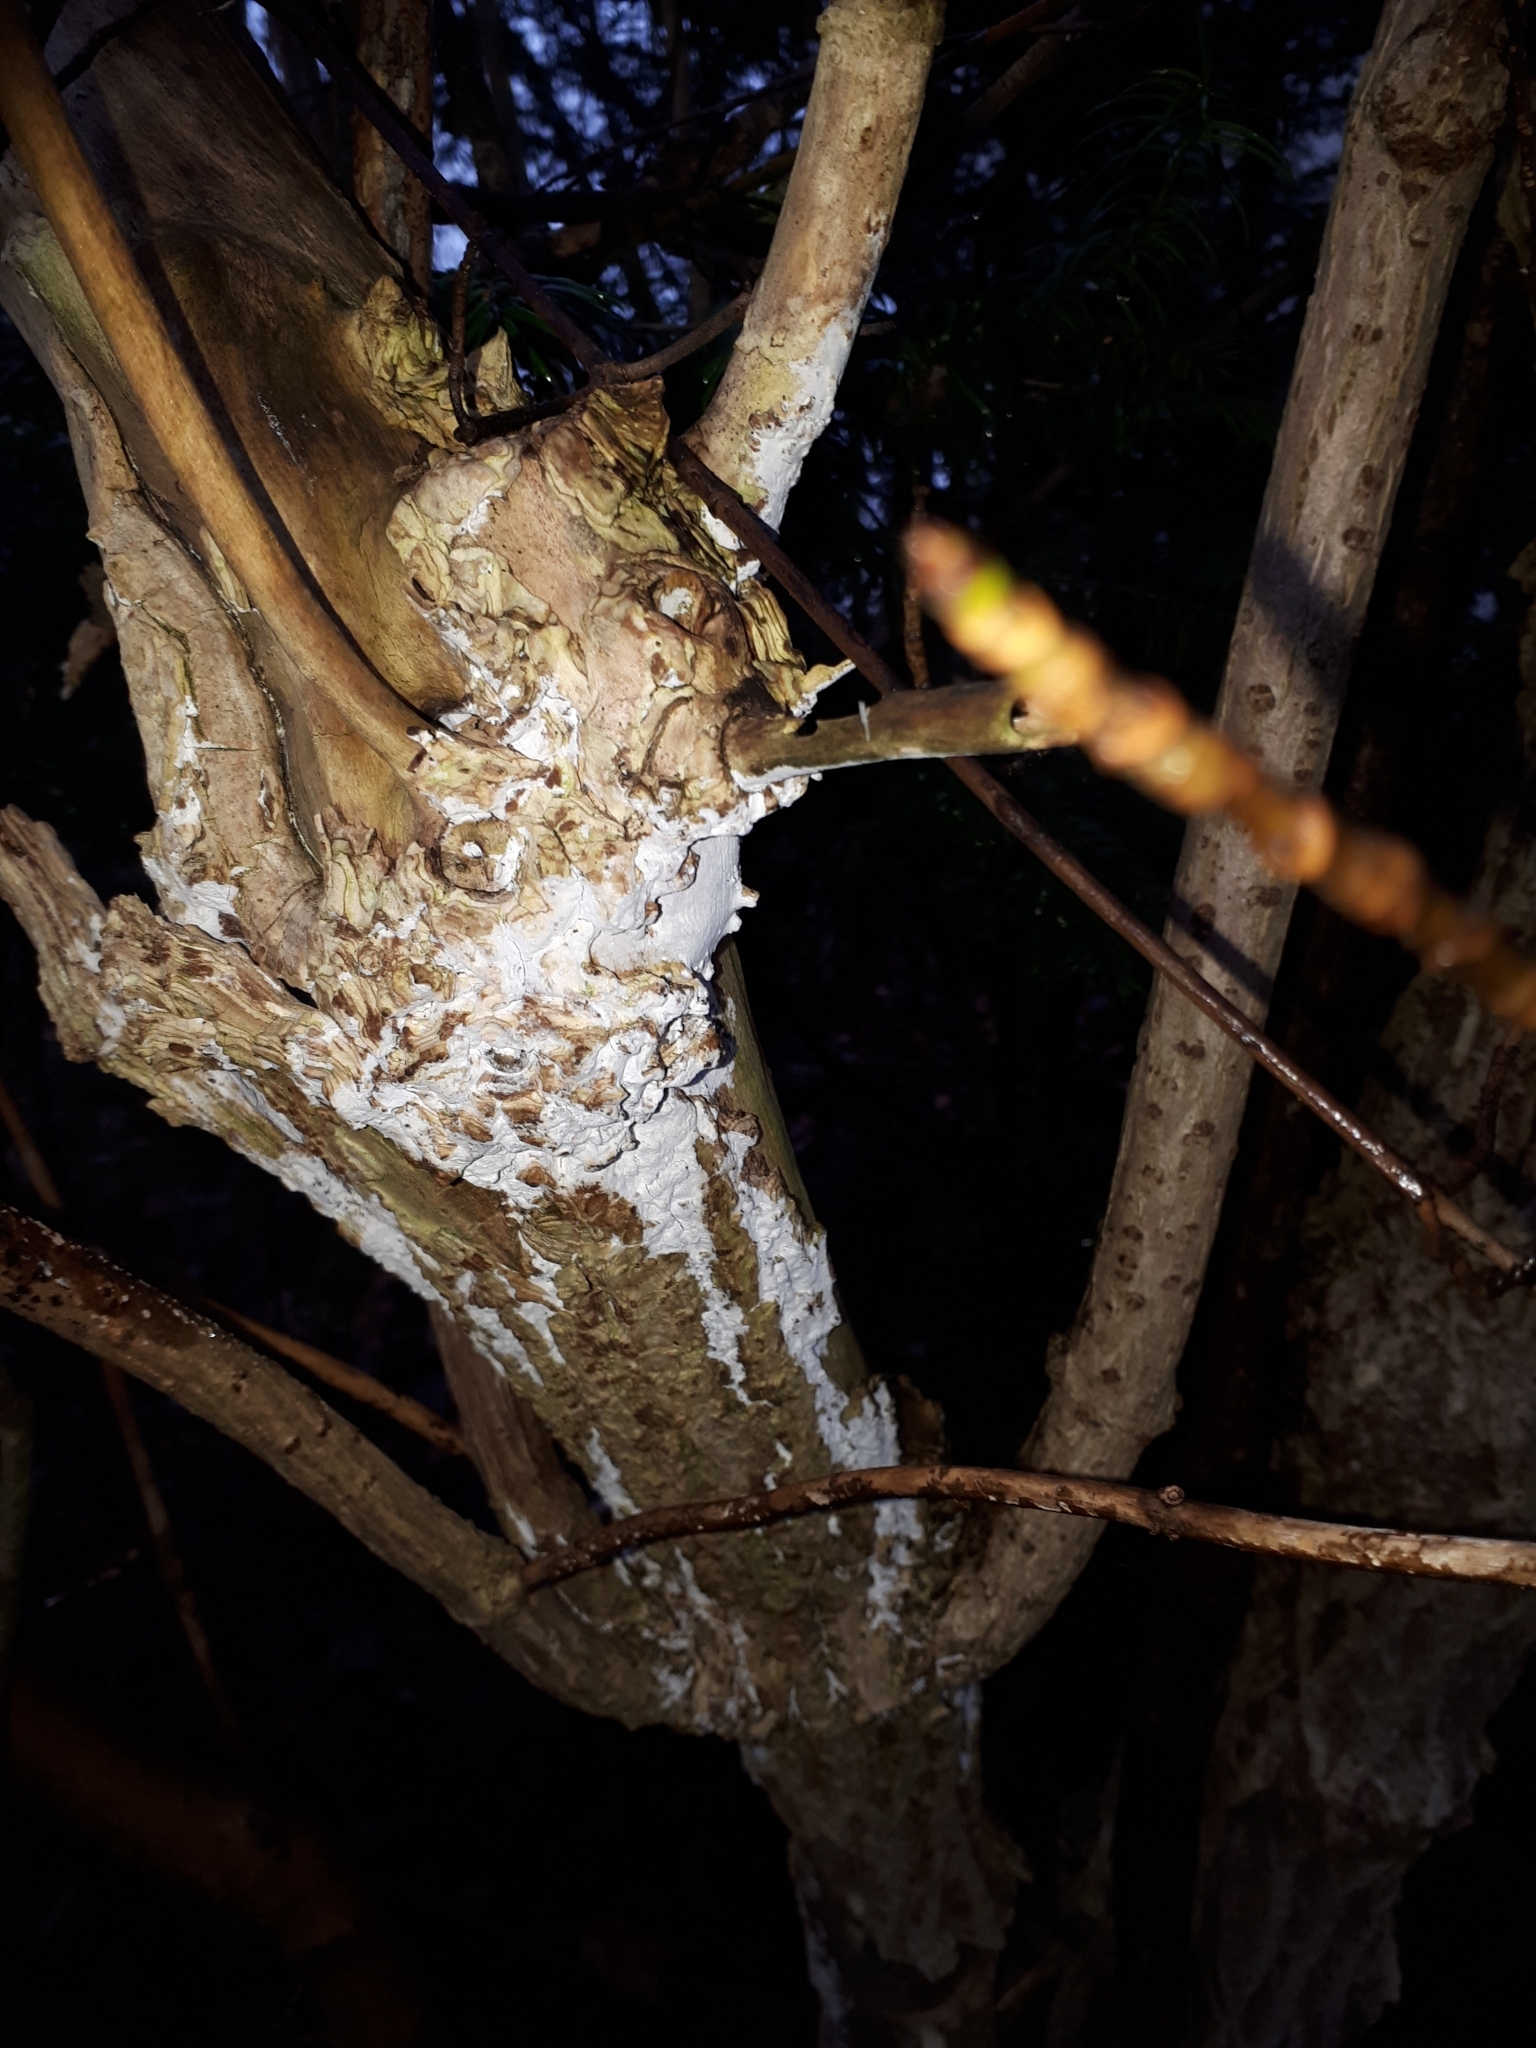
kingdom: Fungi
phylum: Basidiomycota
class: Agaricomycetes
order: Corticiales
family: Corticiaceae
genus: Lyomyces
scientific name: Lyomyces sambuci
